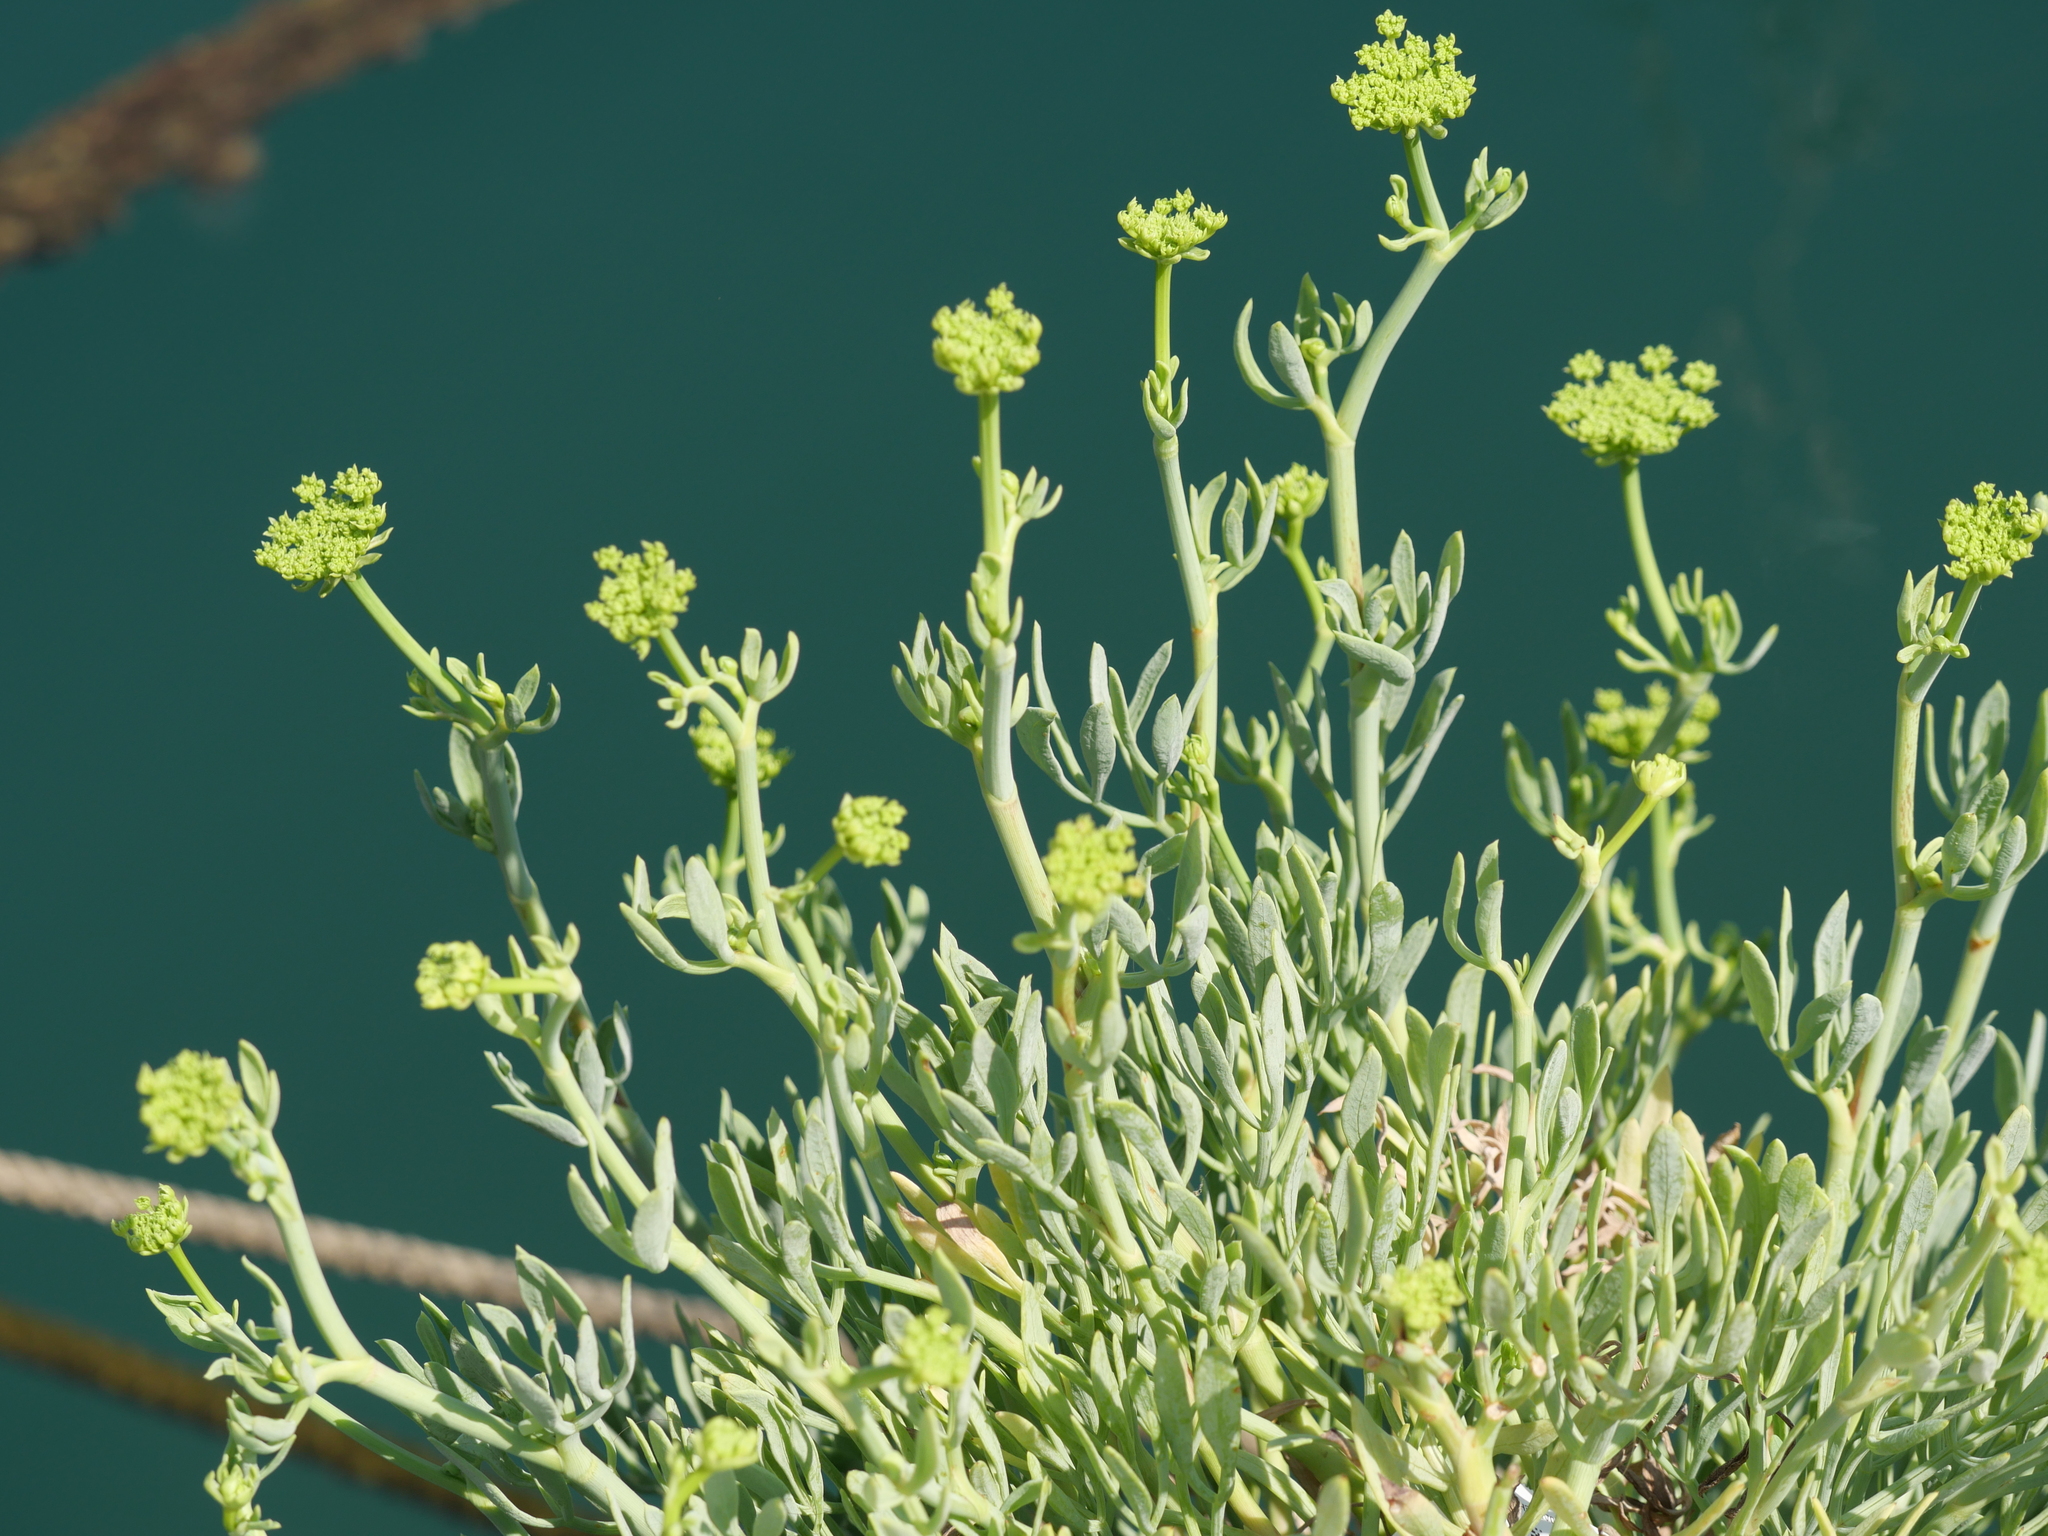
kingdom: Plantae
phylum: Tracheophyta
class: Magnoliopsida
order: Apiales
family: Apiaceae
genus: Crithmum
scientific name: Crithmum maritimum
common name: Rock samphire
